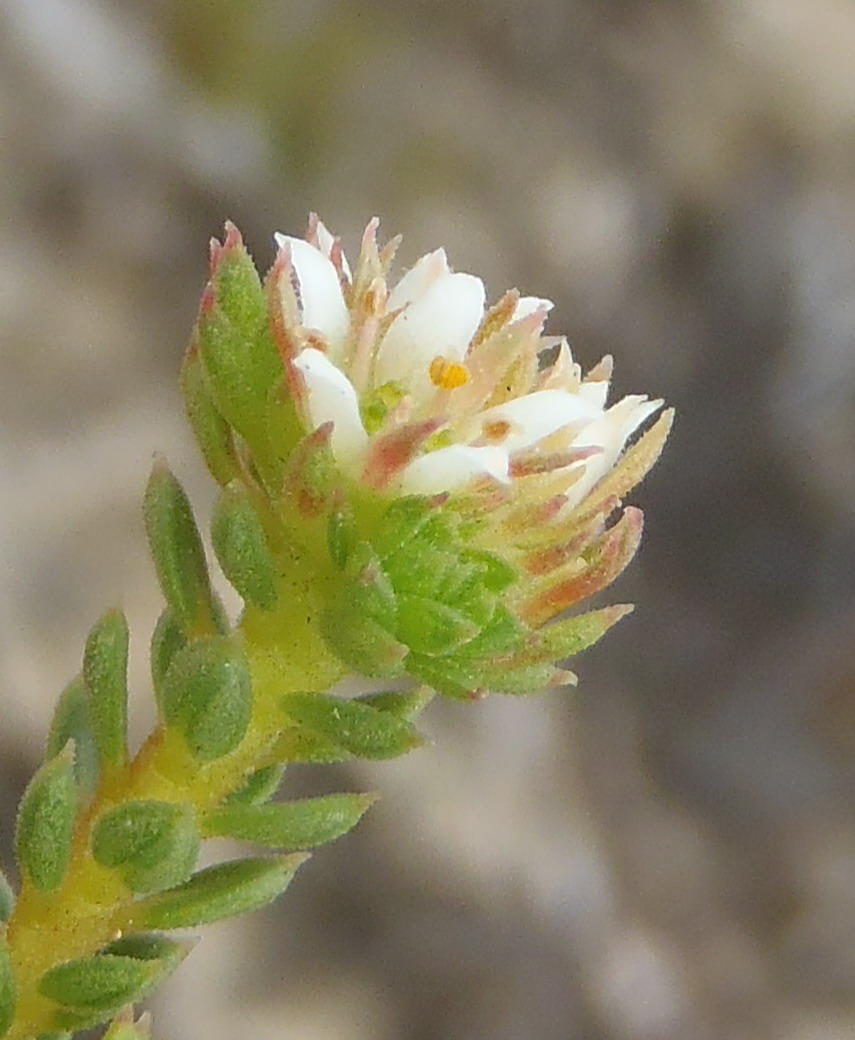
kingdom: Plantae
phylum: Tracheophyta
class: Magnoliopsida
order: Sapindales
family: Rutaceae
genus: Diosma
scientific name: Diosma echinulata
